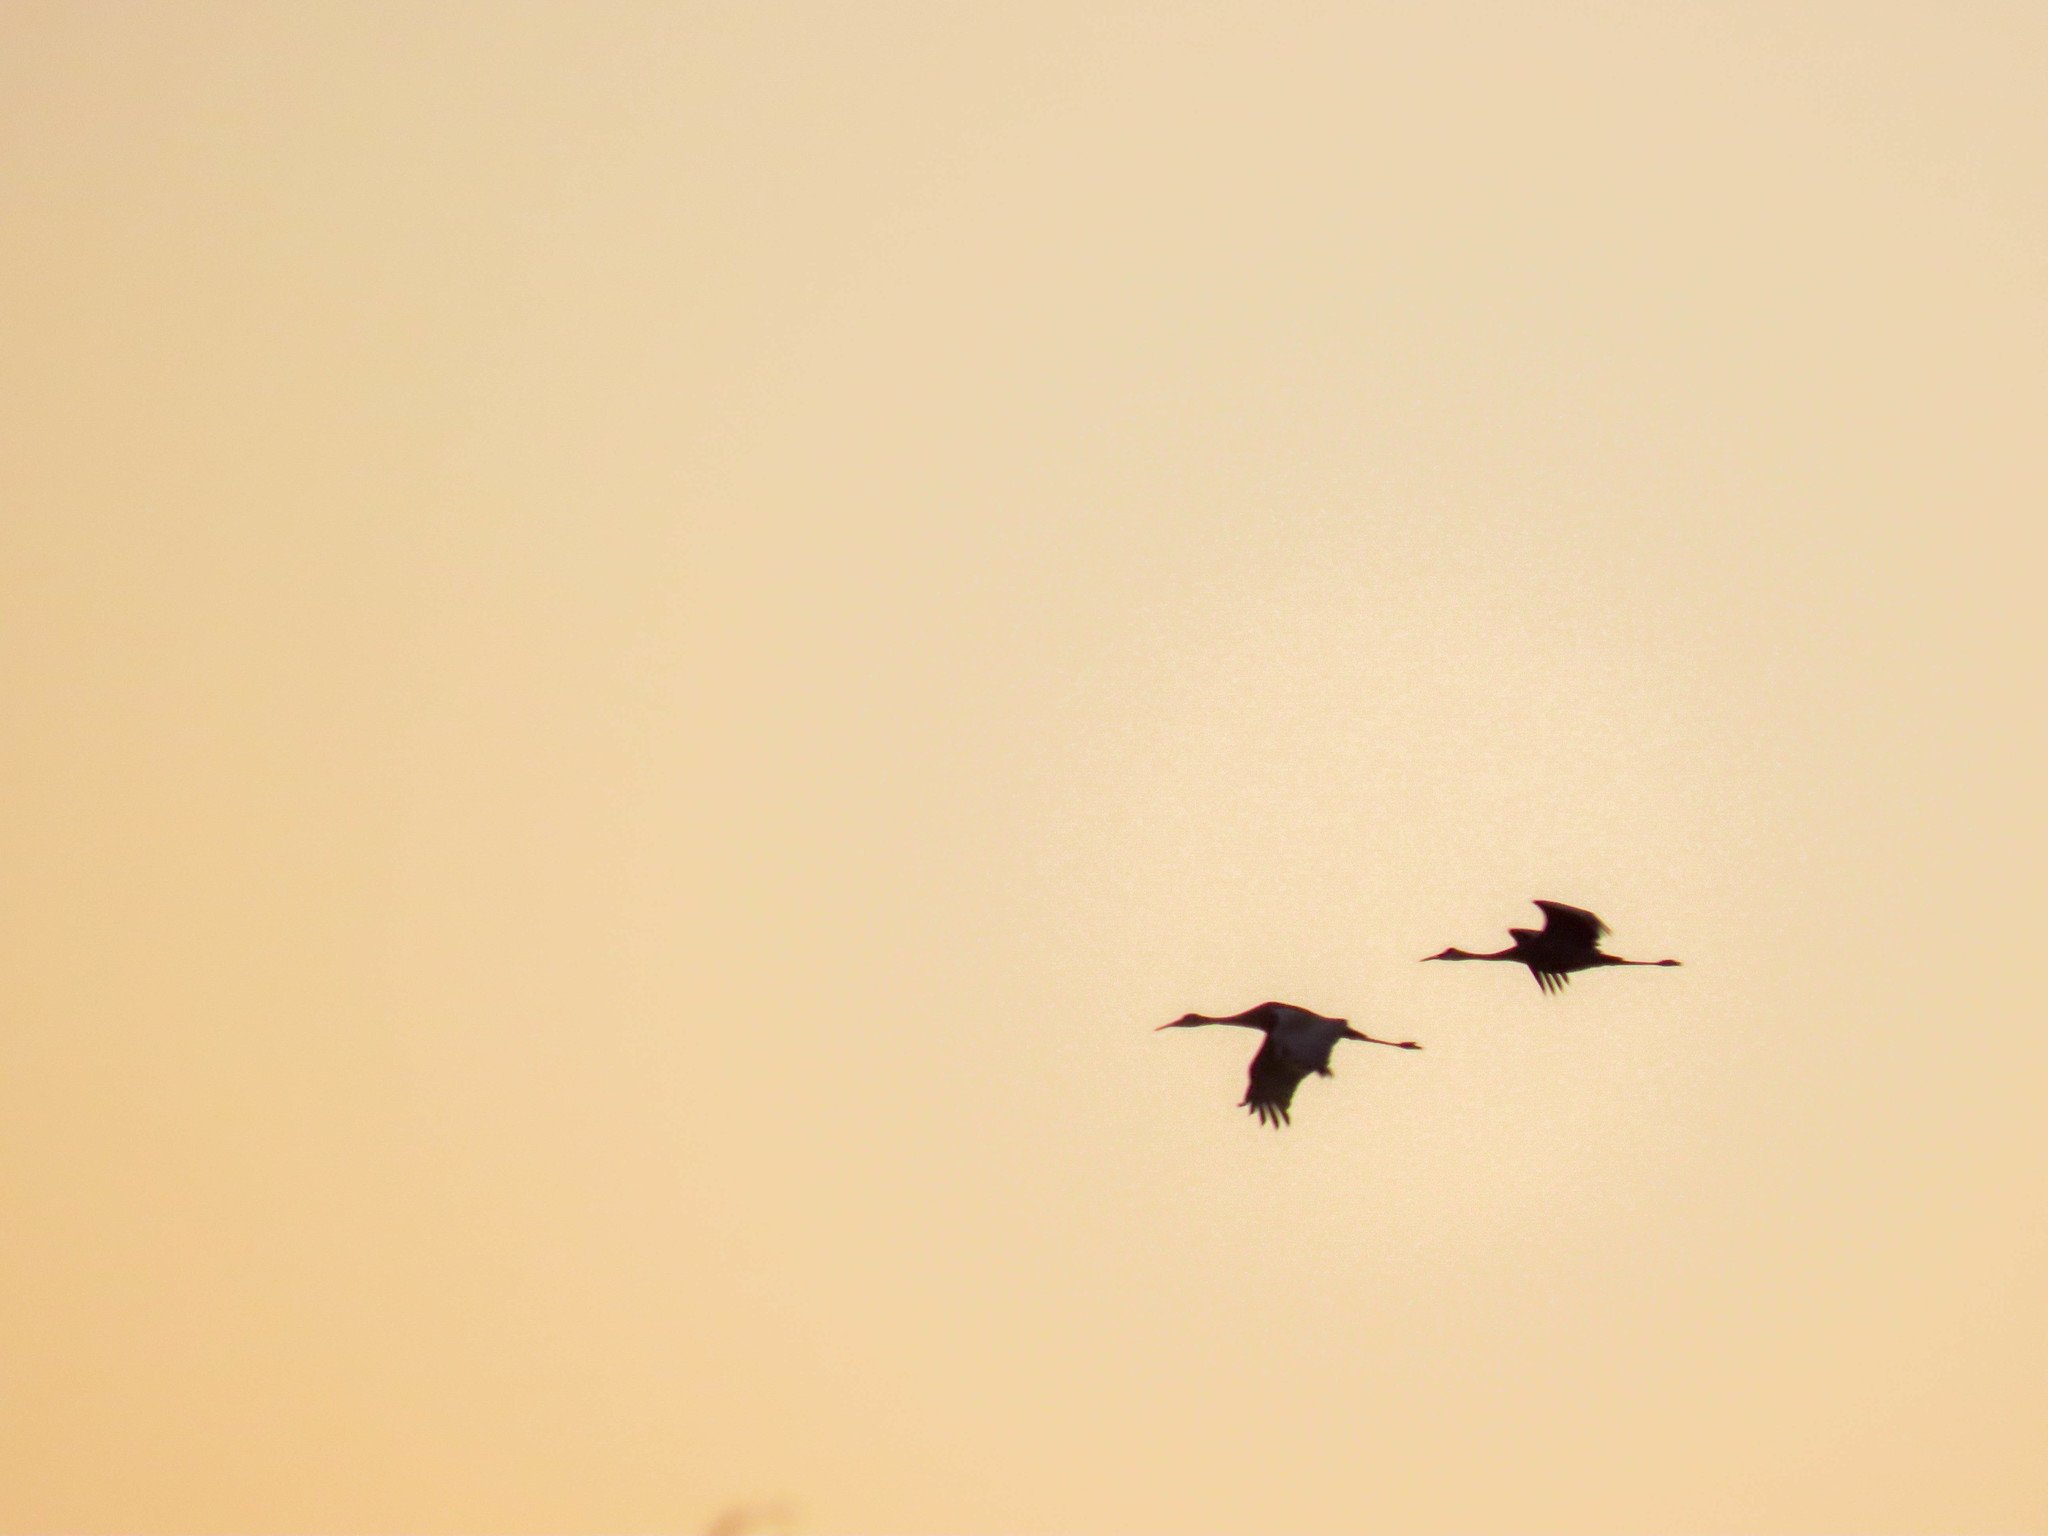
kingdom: Animalia
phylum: Chordata
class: Aves
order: Gruiformes
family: Gruidae
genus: Grus
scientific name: Grus canadensis
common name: Sandhill crane
